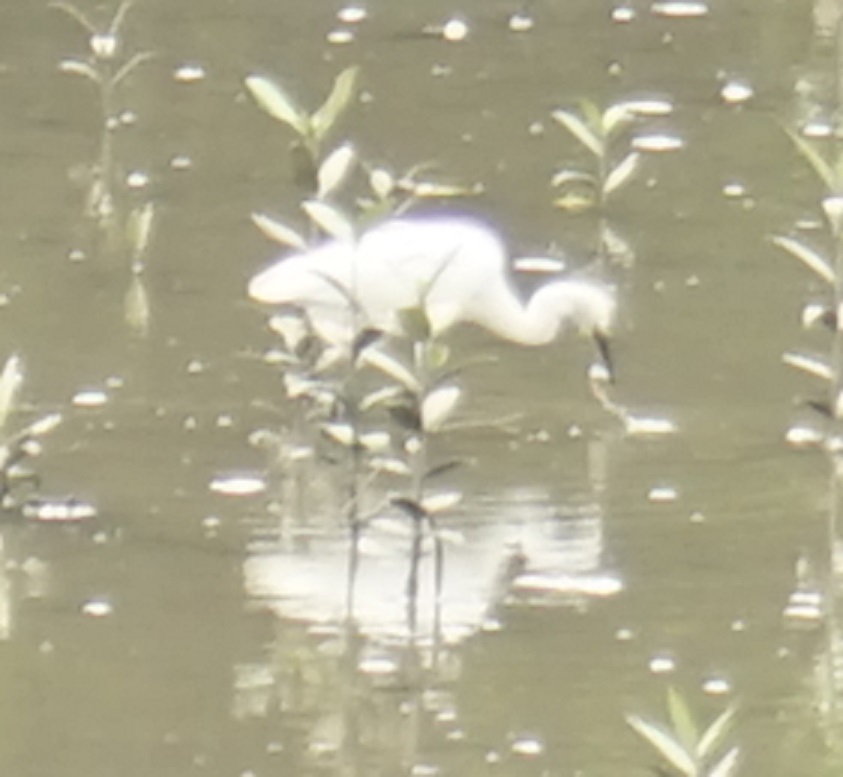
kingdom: Animalia
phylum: Chordata
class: Aves
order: Pelecaniformes
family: Ardeidae
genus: Egretta
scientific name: Egretta garzetta
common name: Little egret
